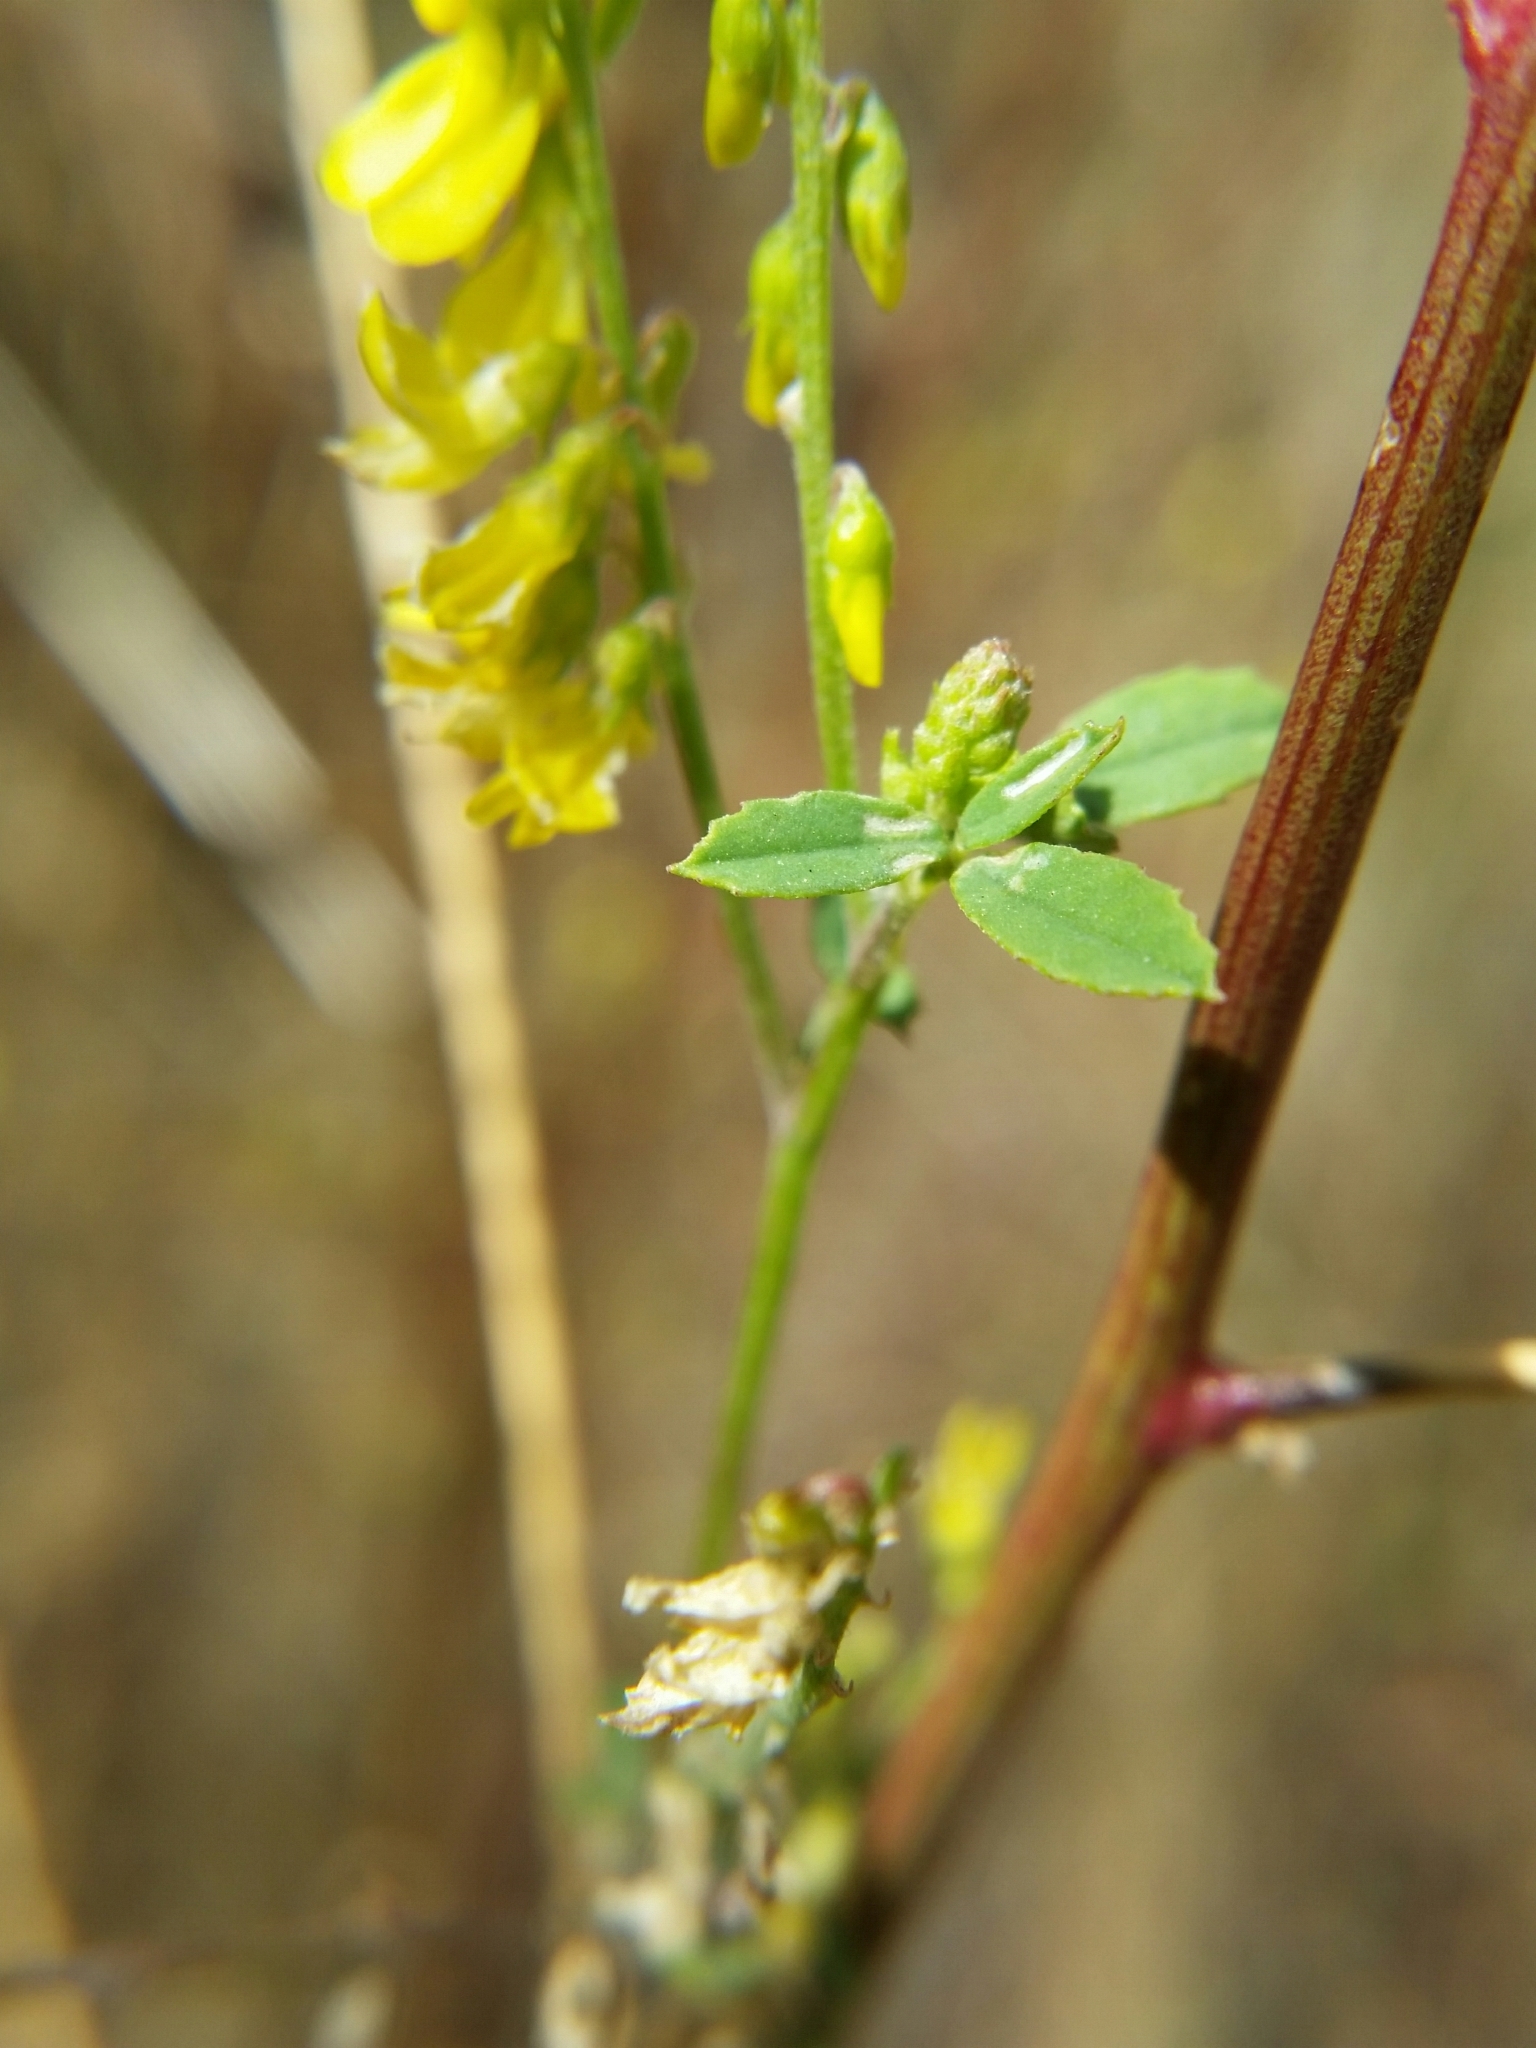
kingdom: Plantae
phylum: Tracheophyta
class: Magnoliopsida
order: Fabales
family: Fabaceae
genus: Melilotus
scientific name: Melilotus officinalis
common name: Sweetclover
